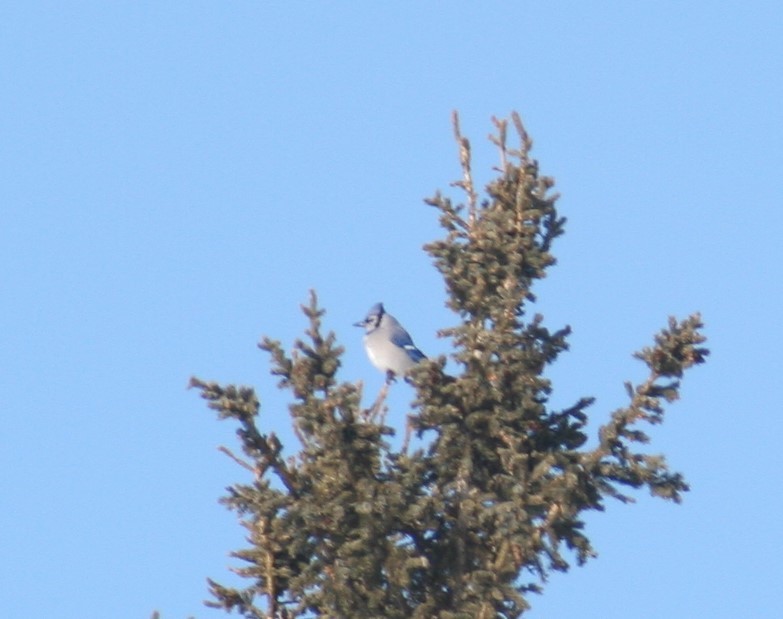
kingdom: Animalia
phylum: Chordata
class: Aves
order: Passeriformes
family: Corvidae
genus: Cyanocitta
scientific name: Cyanocitta cristata
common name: Blue jay
